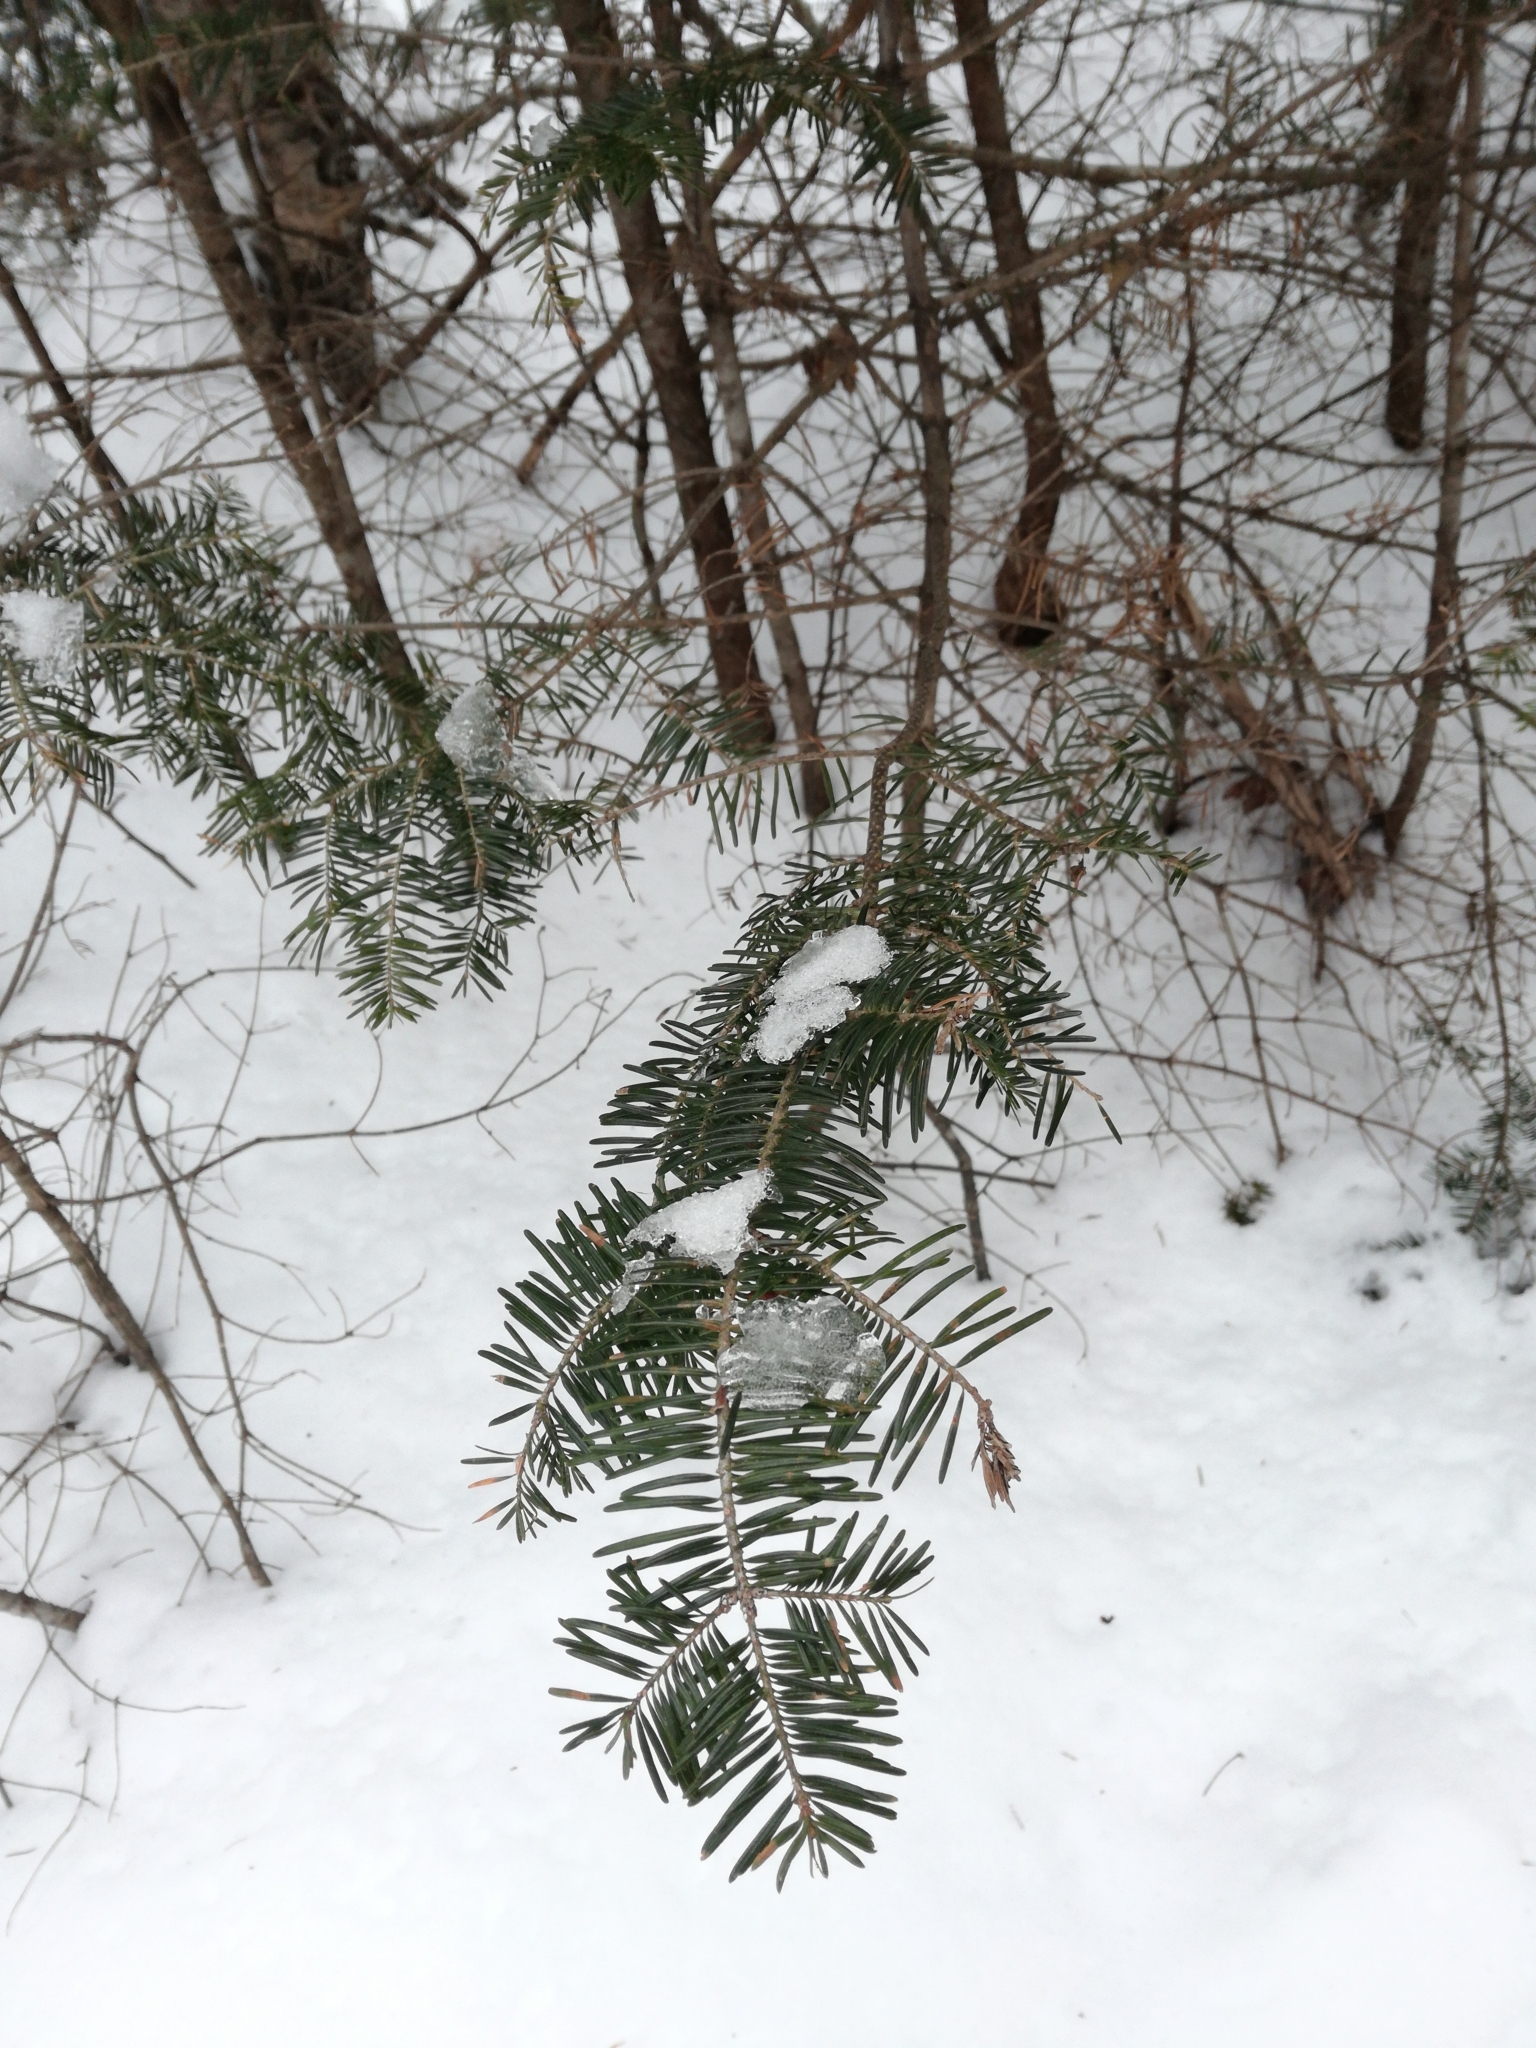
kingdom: Plantae
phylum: Tracheophyta
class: Pinopsida
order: Pinales
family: Pinaceae
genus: Abies
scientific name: Abies balsamea
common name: Balsam fir
